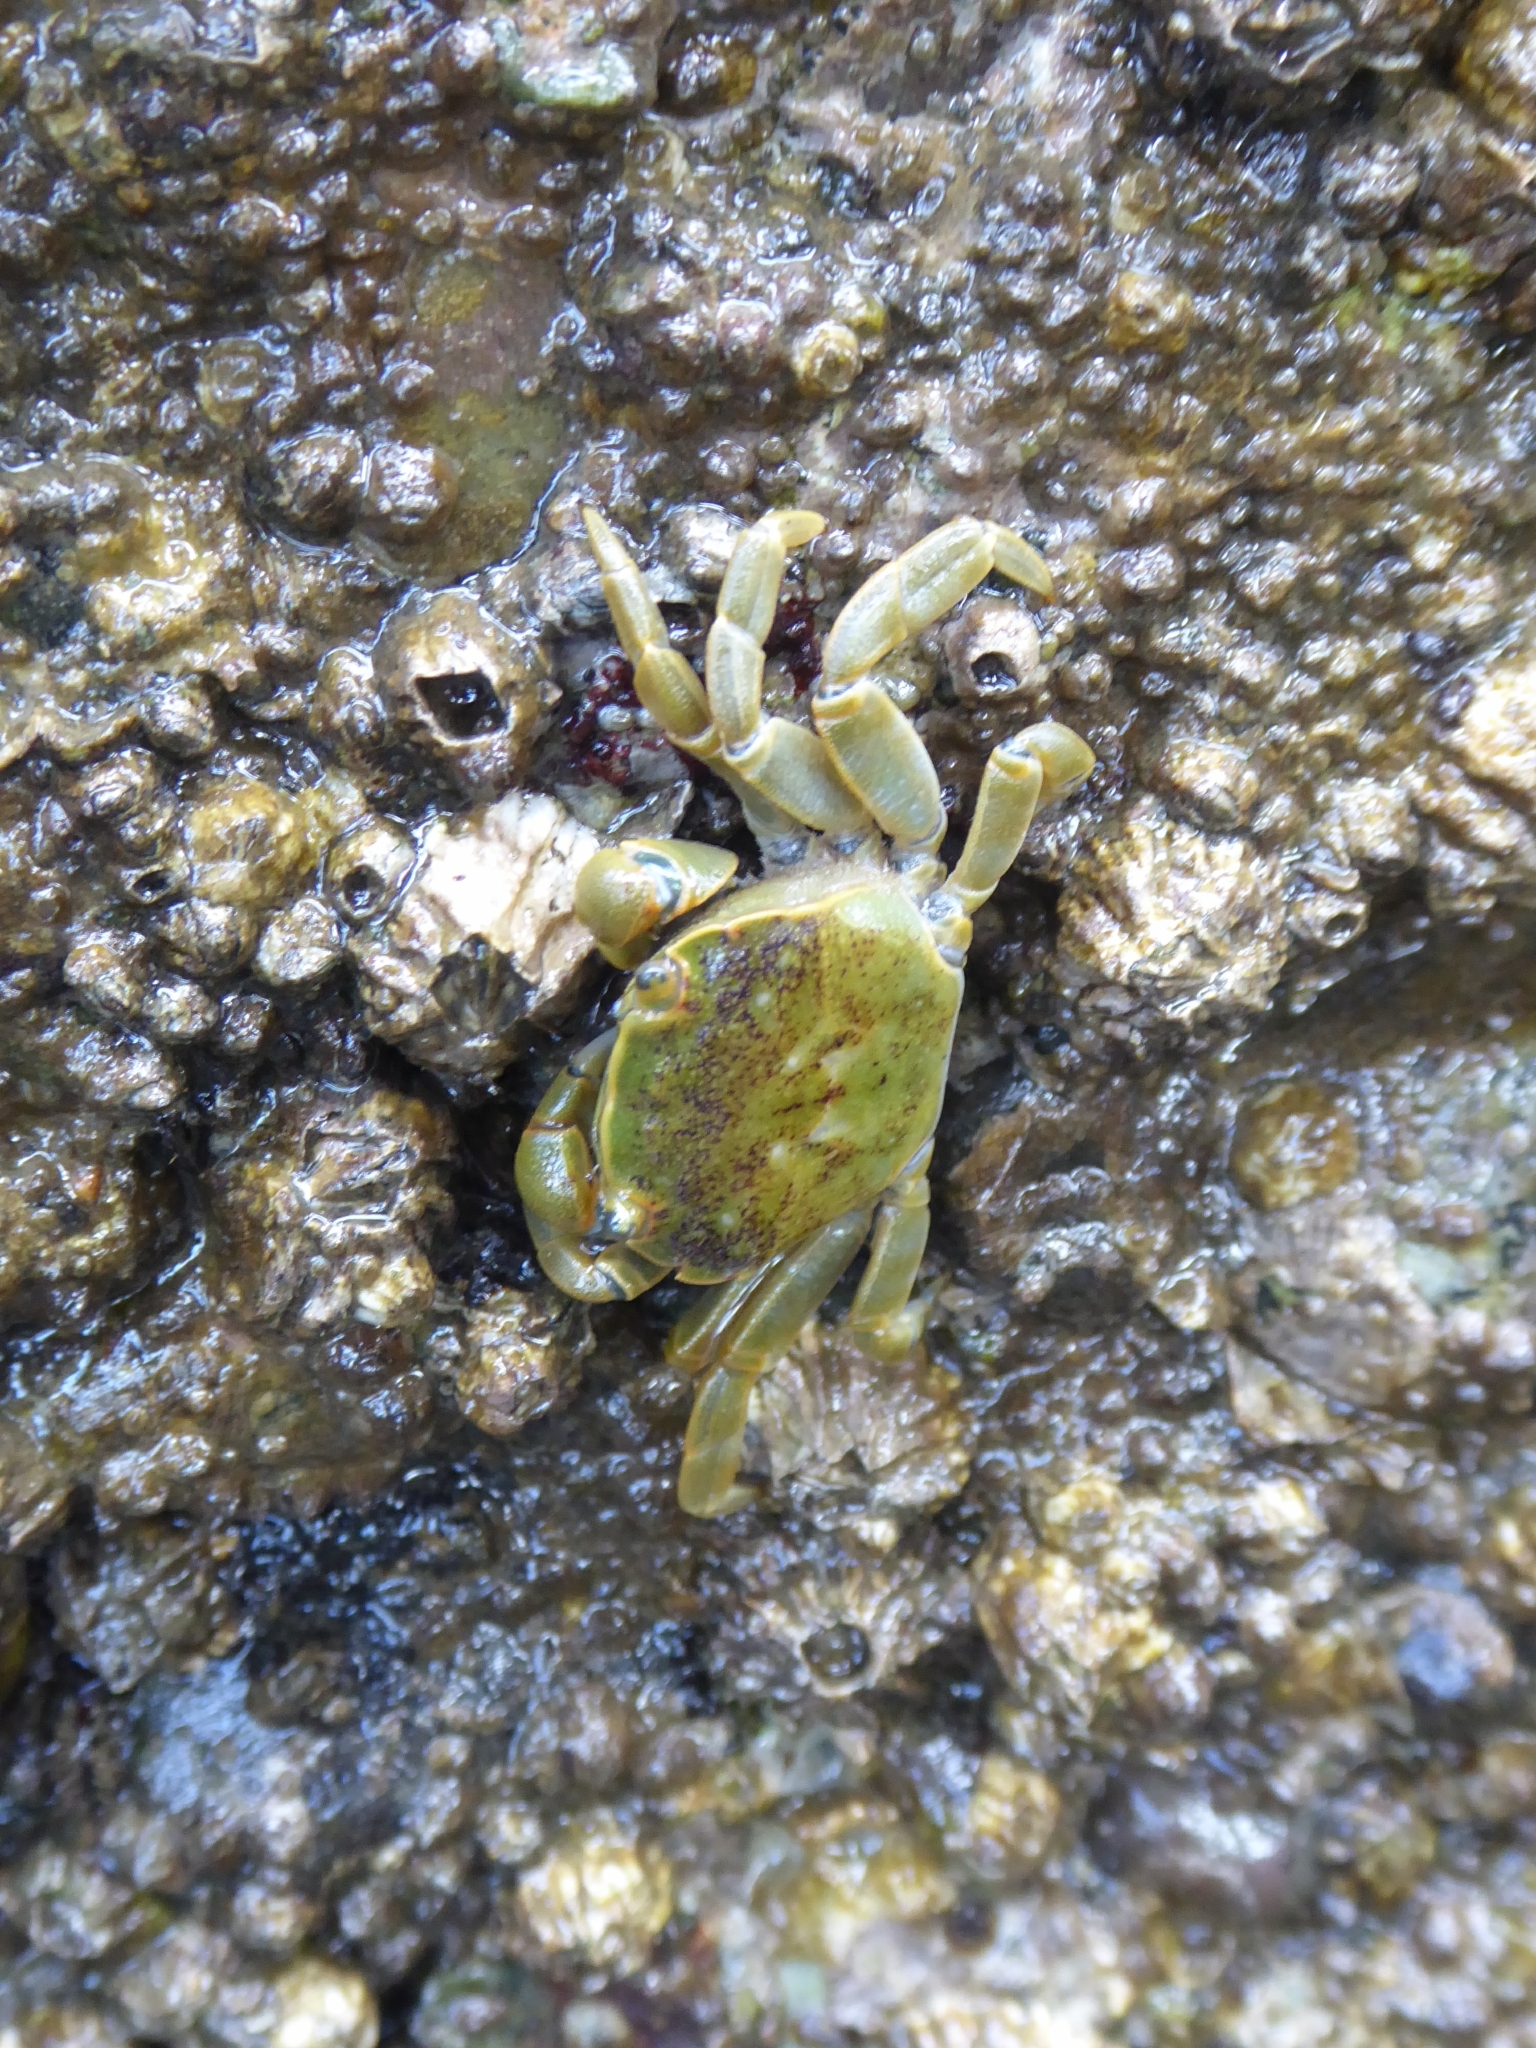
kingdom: Animalia
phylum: Arthropoda
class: Malacostraca
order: Decapoda
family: Varunidae
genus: Hemigrapsus
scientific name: Hemigrapsus nudus
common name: Purple shore crab
